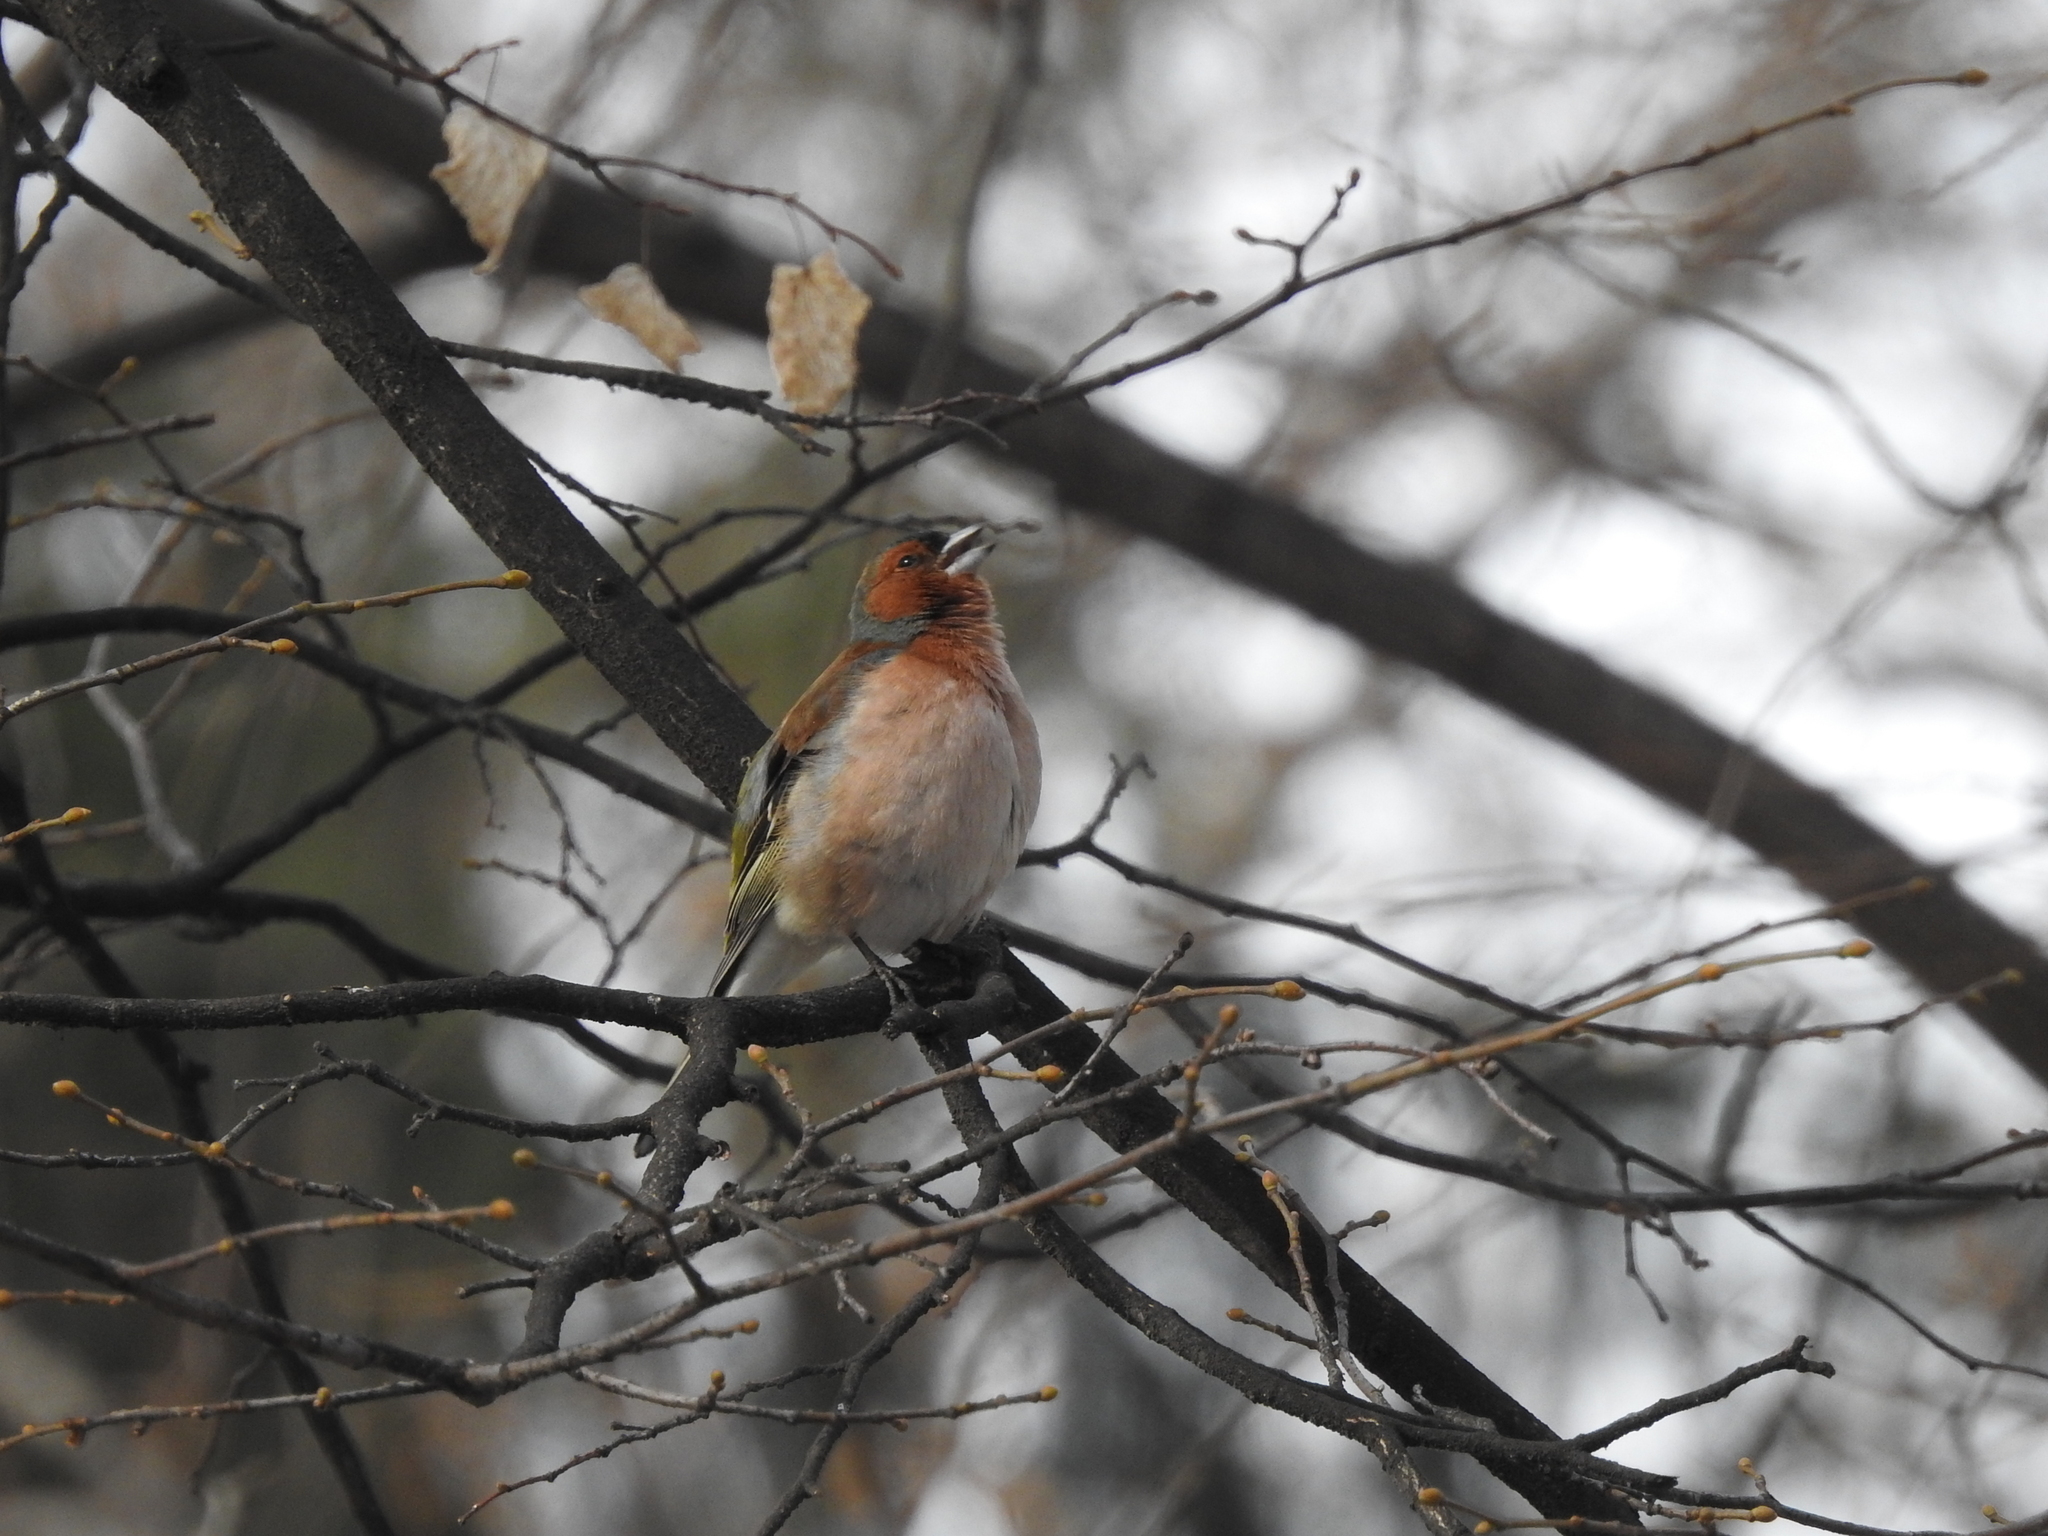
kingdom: Animalia
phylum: Chordata
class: Aves
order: Passeriformes
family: Fringillidae
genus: Fringilla
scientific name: Fringilla coelebs
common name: Common chaffinch
